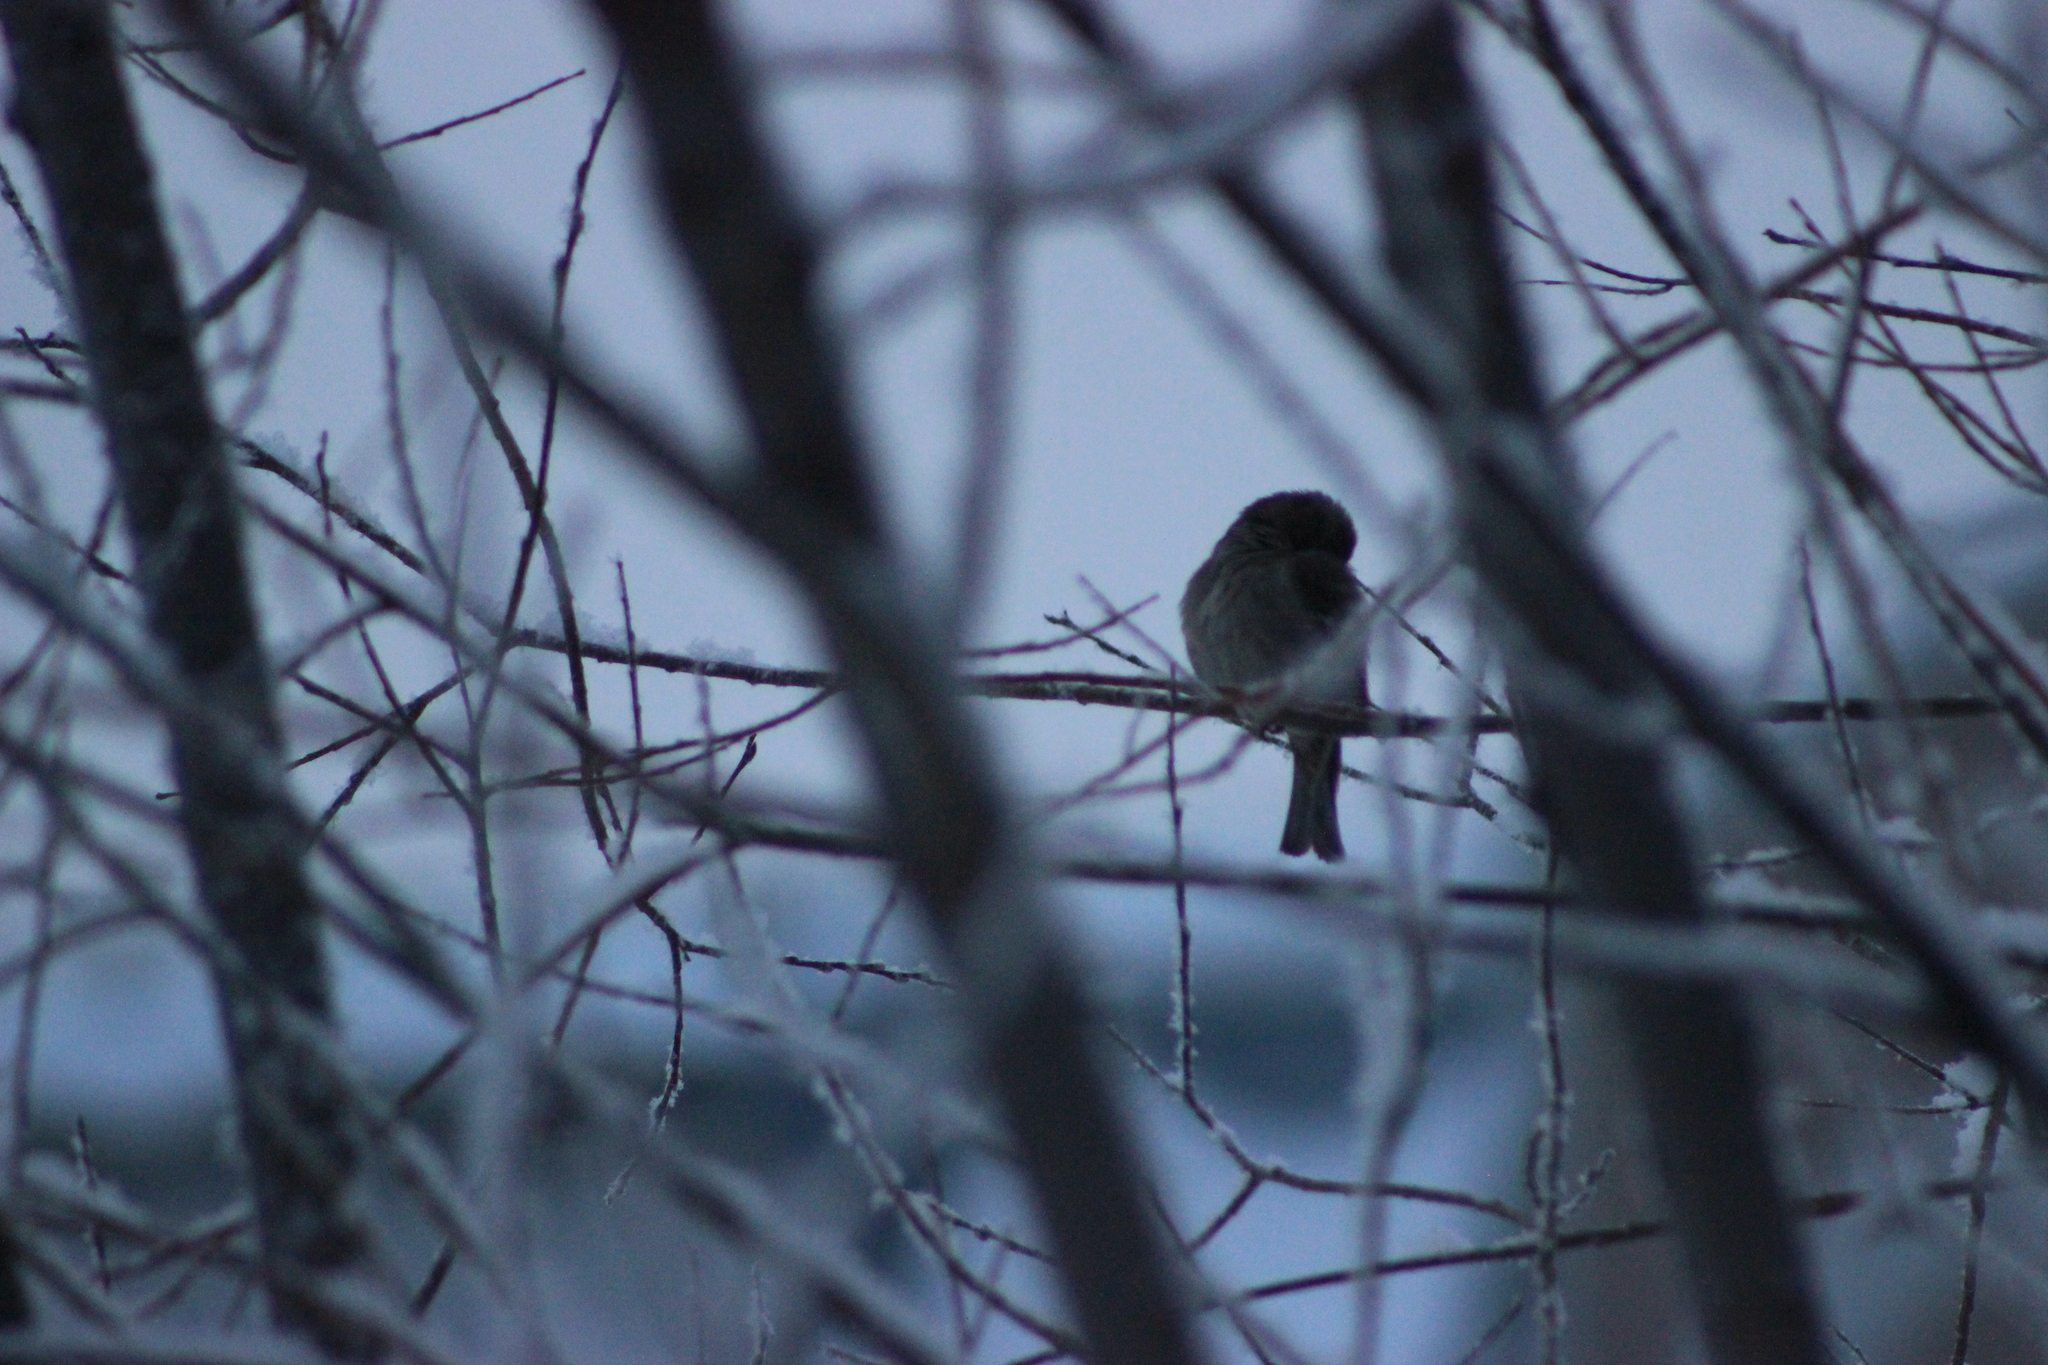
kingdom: Animalia
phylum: Chordata
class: Aves
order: Passeriformes
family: Passeridae
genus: Passer
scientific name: Passer montanus
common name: Eurasian tree sparrow
